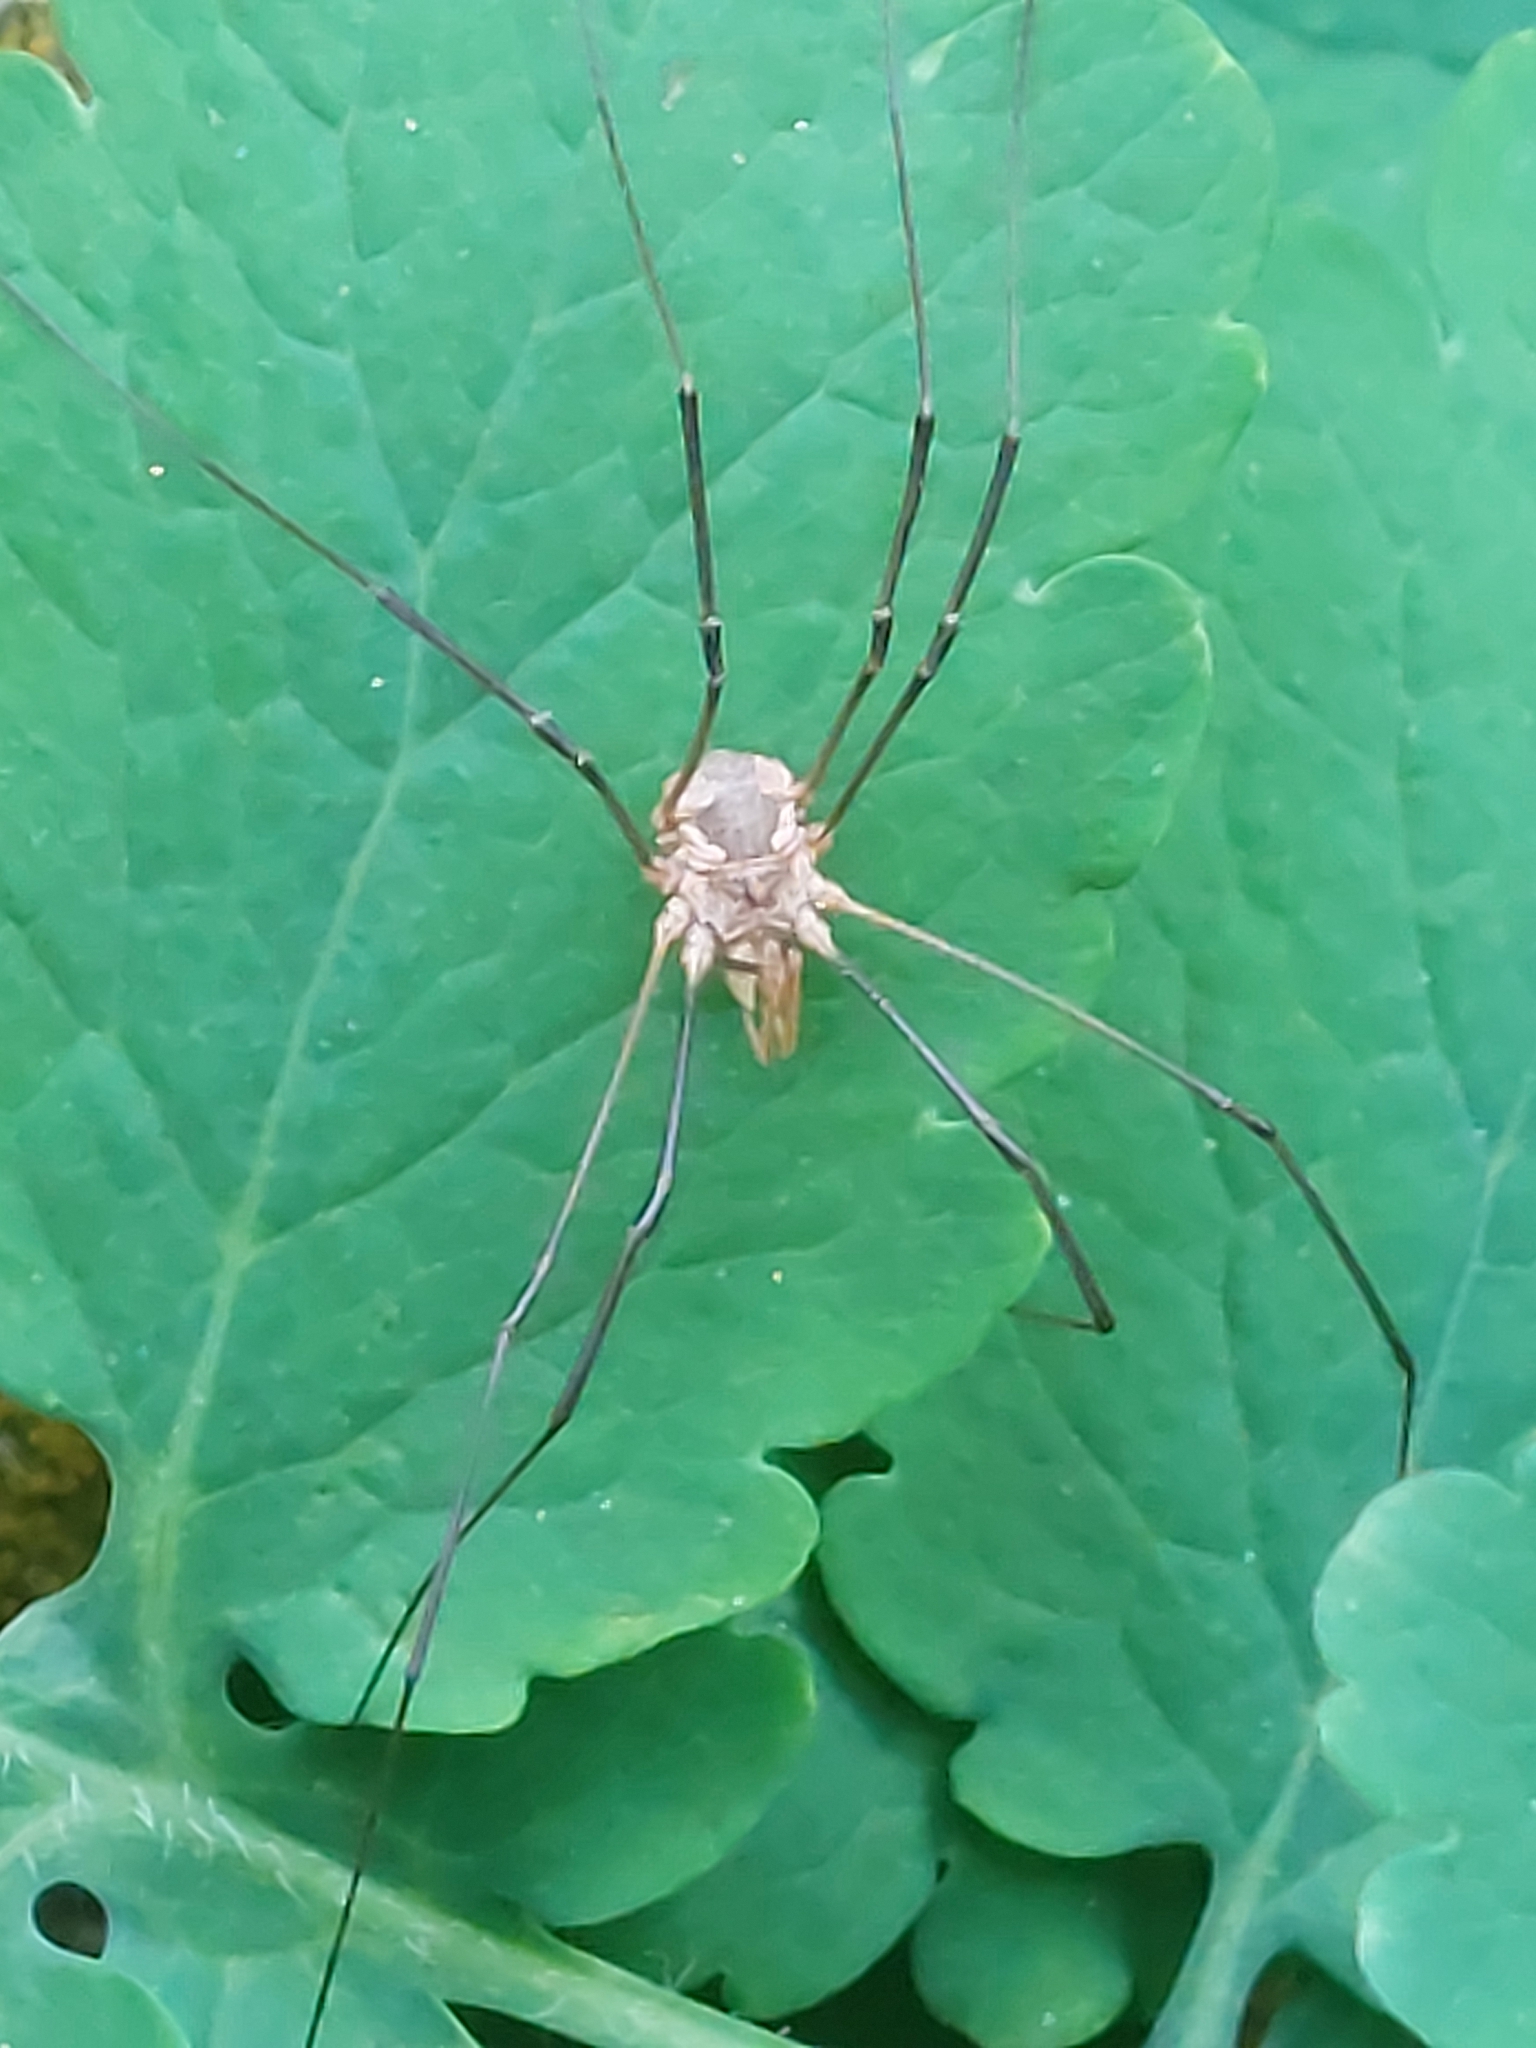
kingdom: Animalia
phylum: Arthropoda
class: Arachnida
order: Opiliones
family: Phalangiidae
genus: Phalangium
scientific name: Phalangium opilio
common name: Daddy longleg
